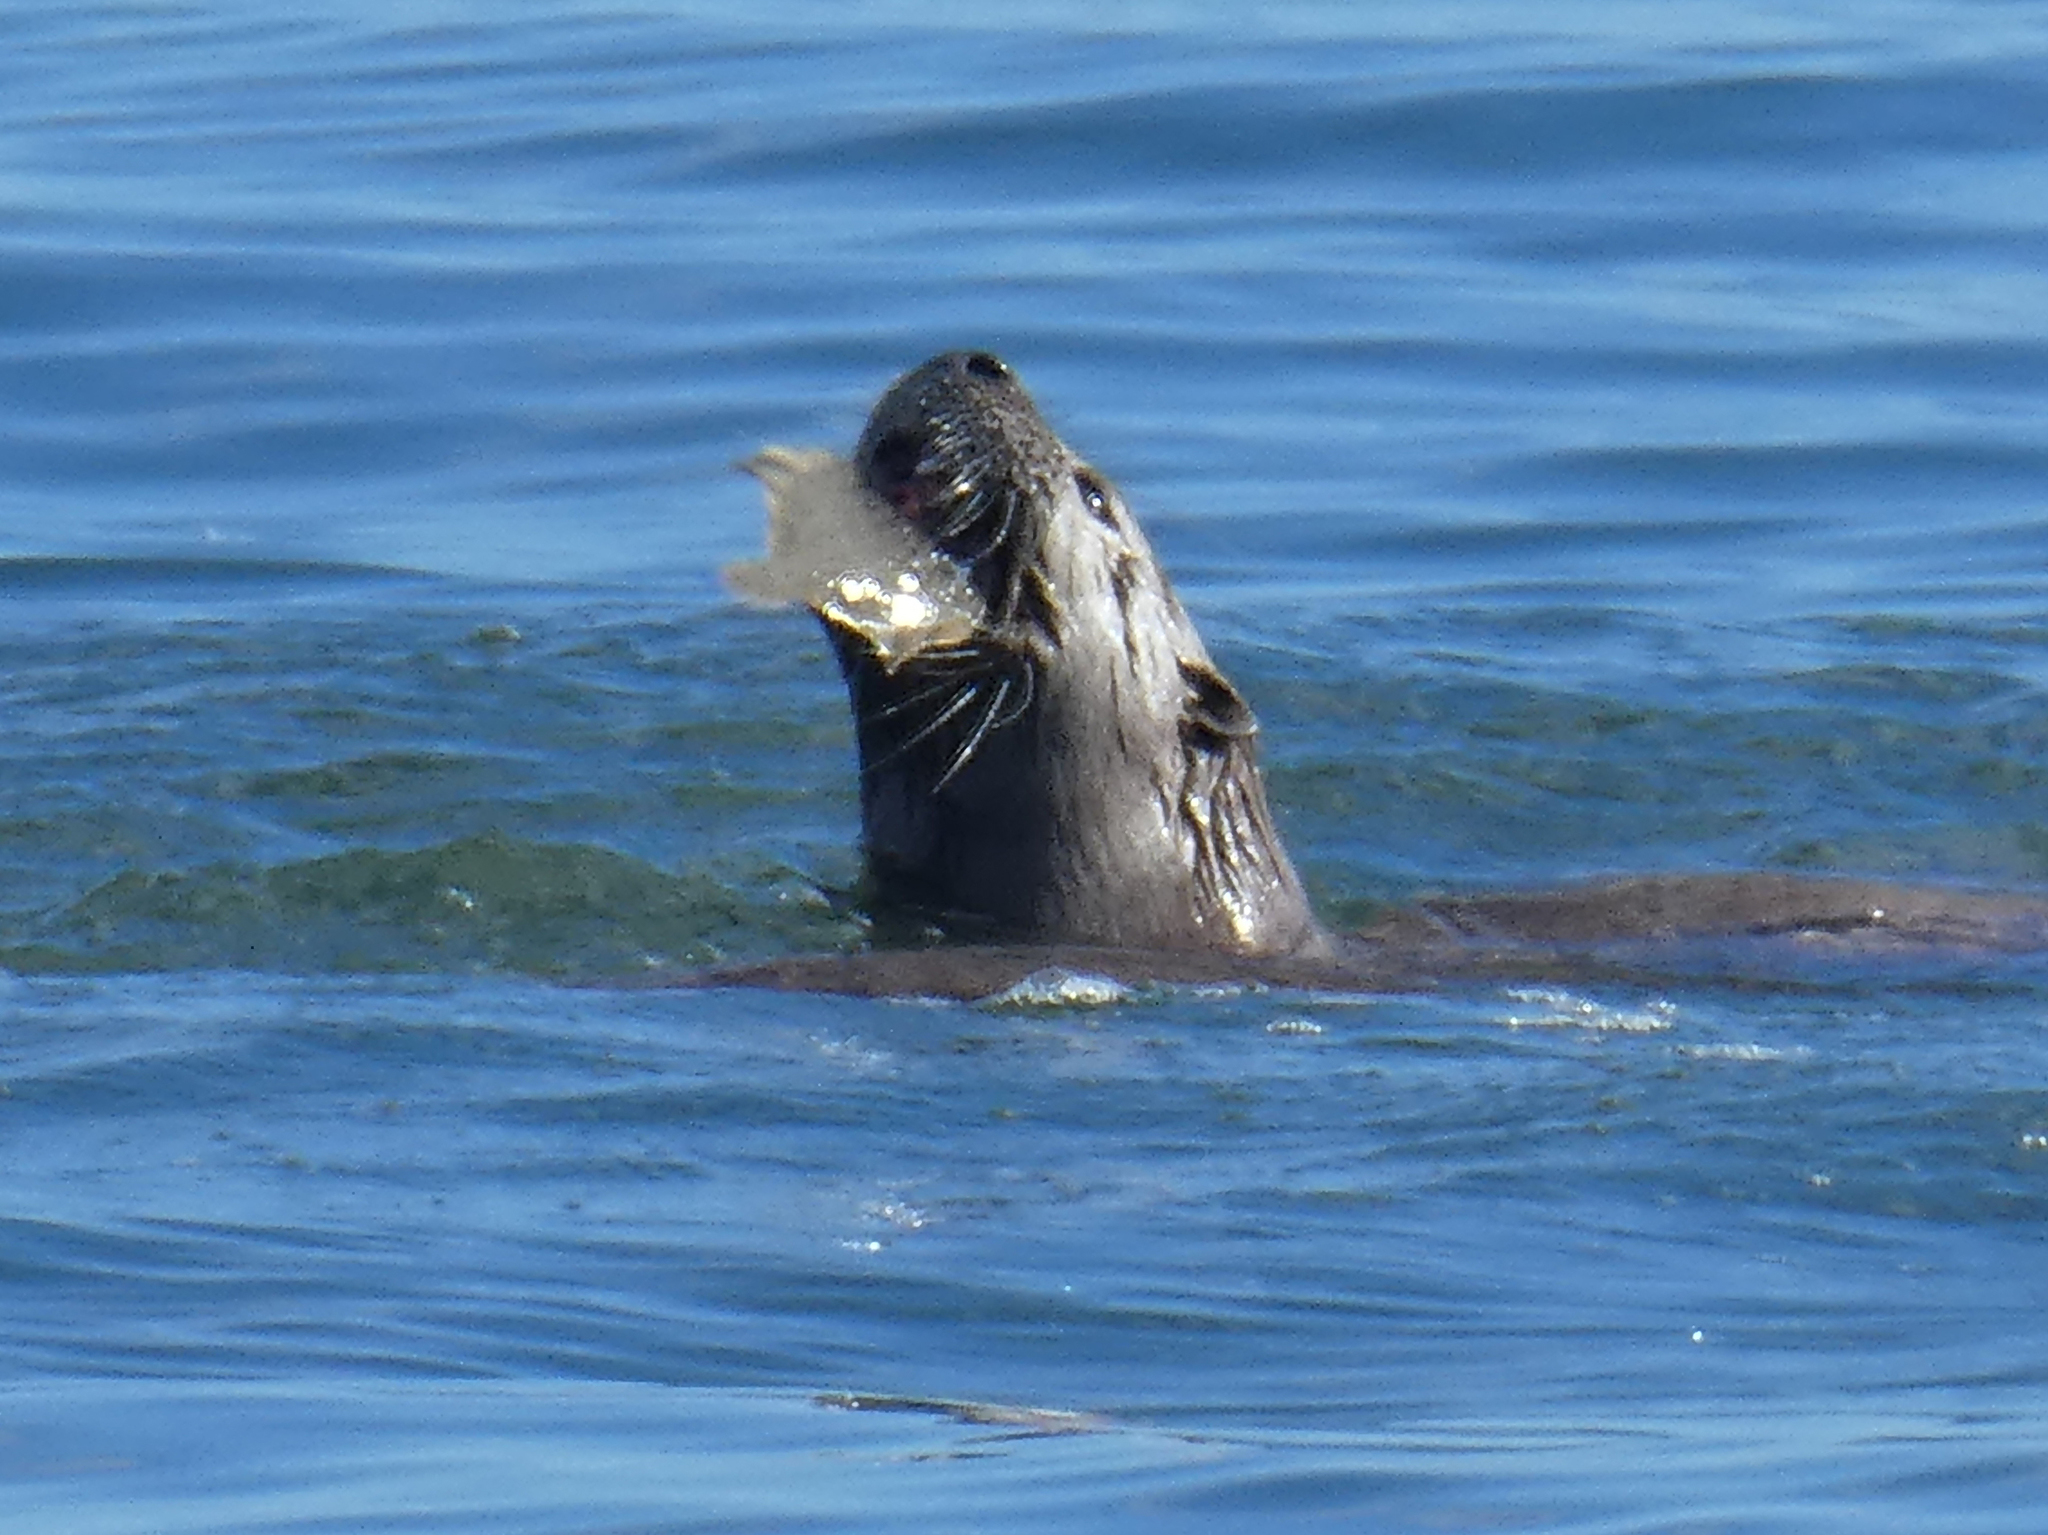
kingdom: Animalia
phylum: Chordata
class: Mammalia
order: Carnivora
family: Mustelidae
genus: Lontra
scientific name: Lontra canadensis
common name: North american river otter
